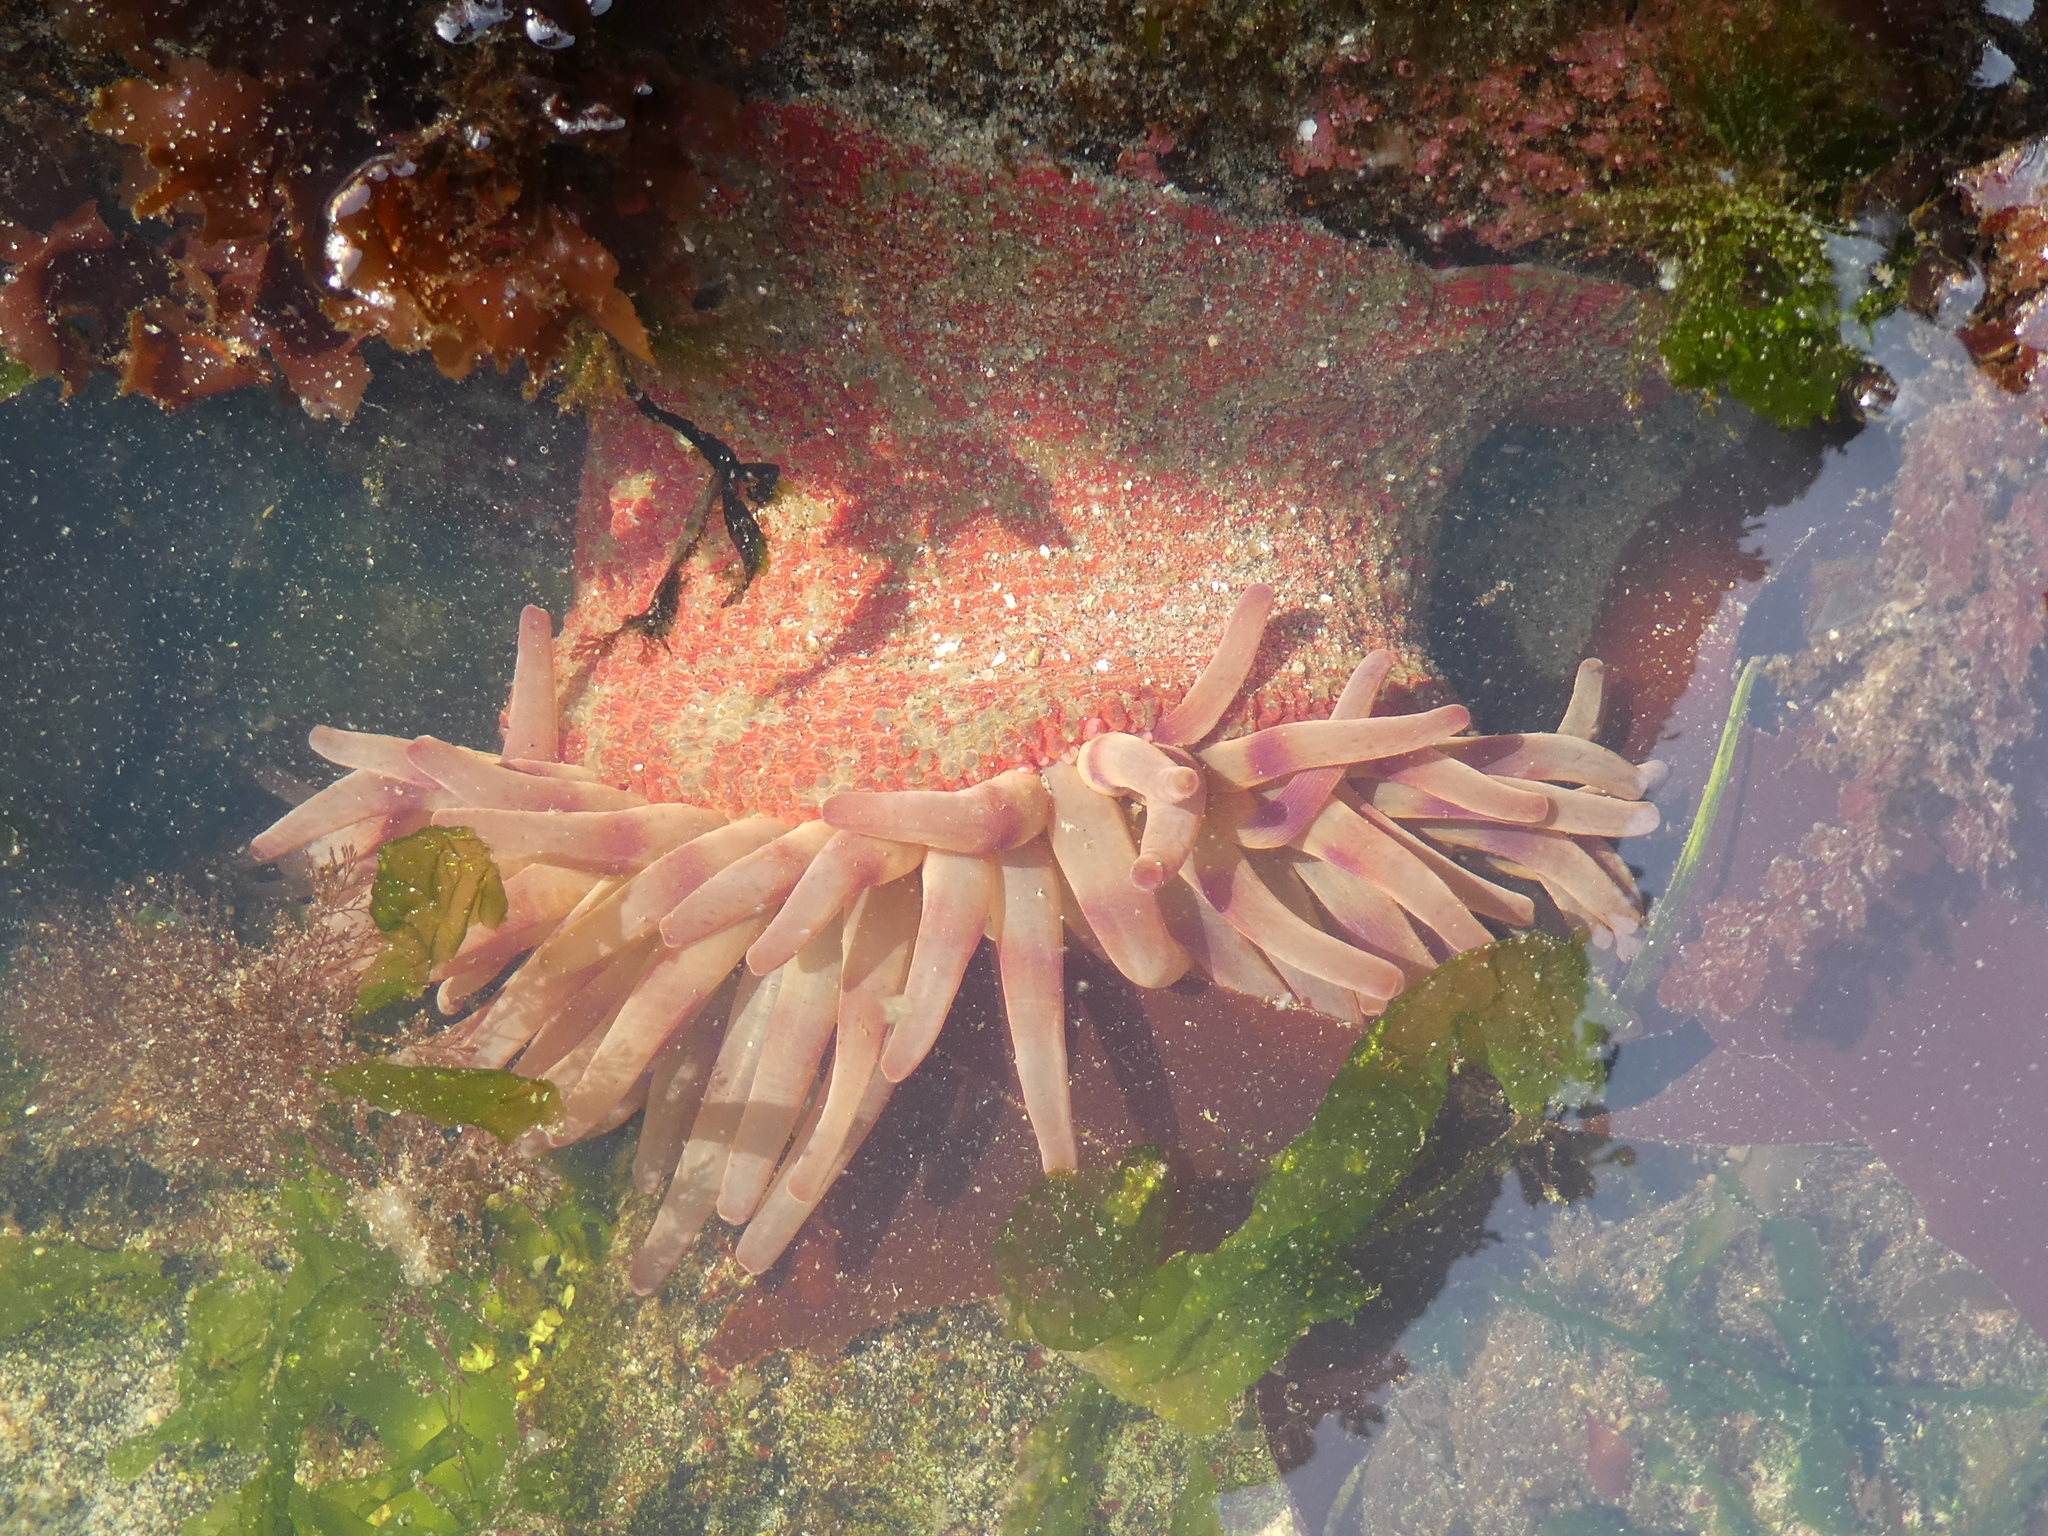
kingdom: Animalia
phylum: Cnidaria
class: Anthozoa
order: Actiniaria
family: Actiniidae
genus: Urticina
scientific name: Urticina grebelnyi
